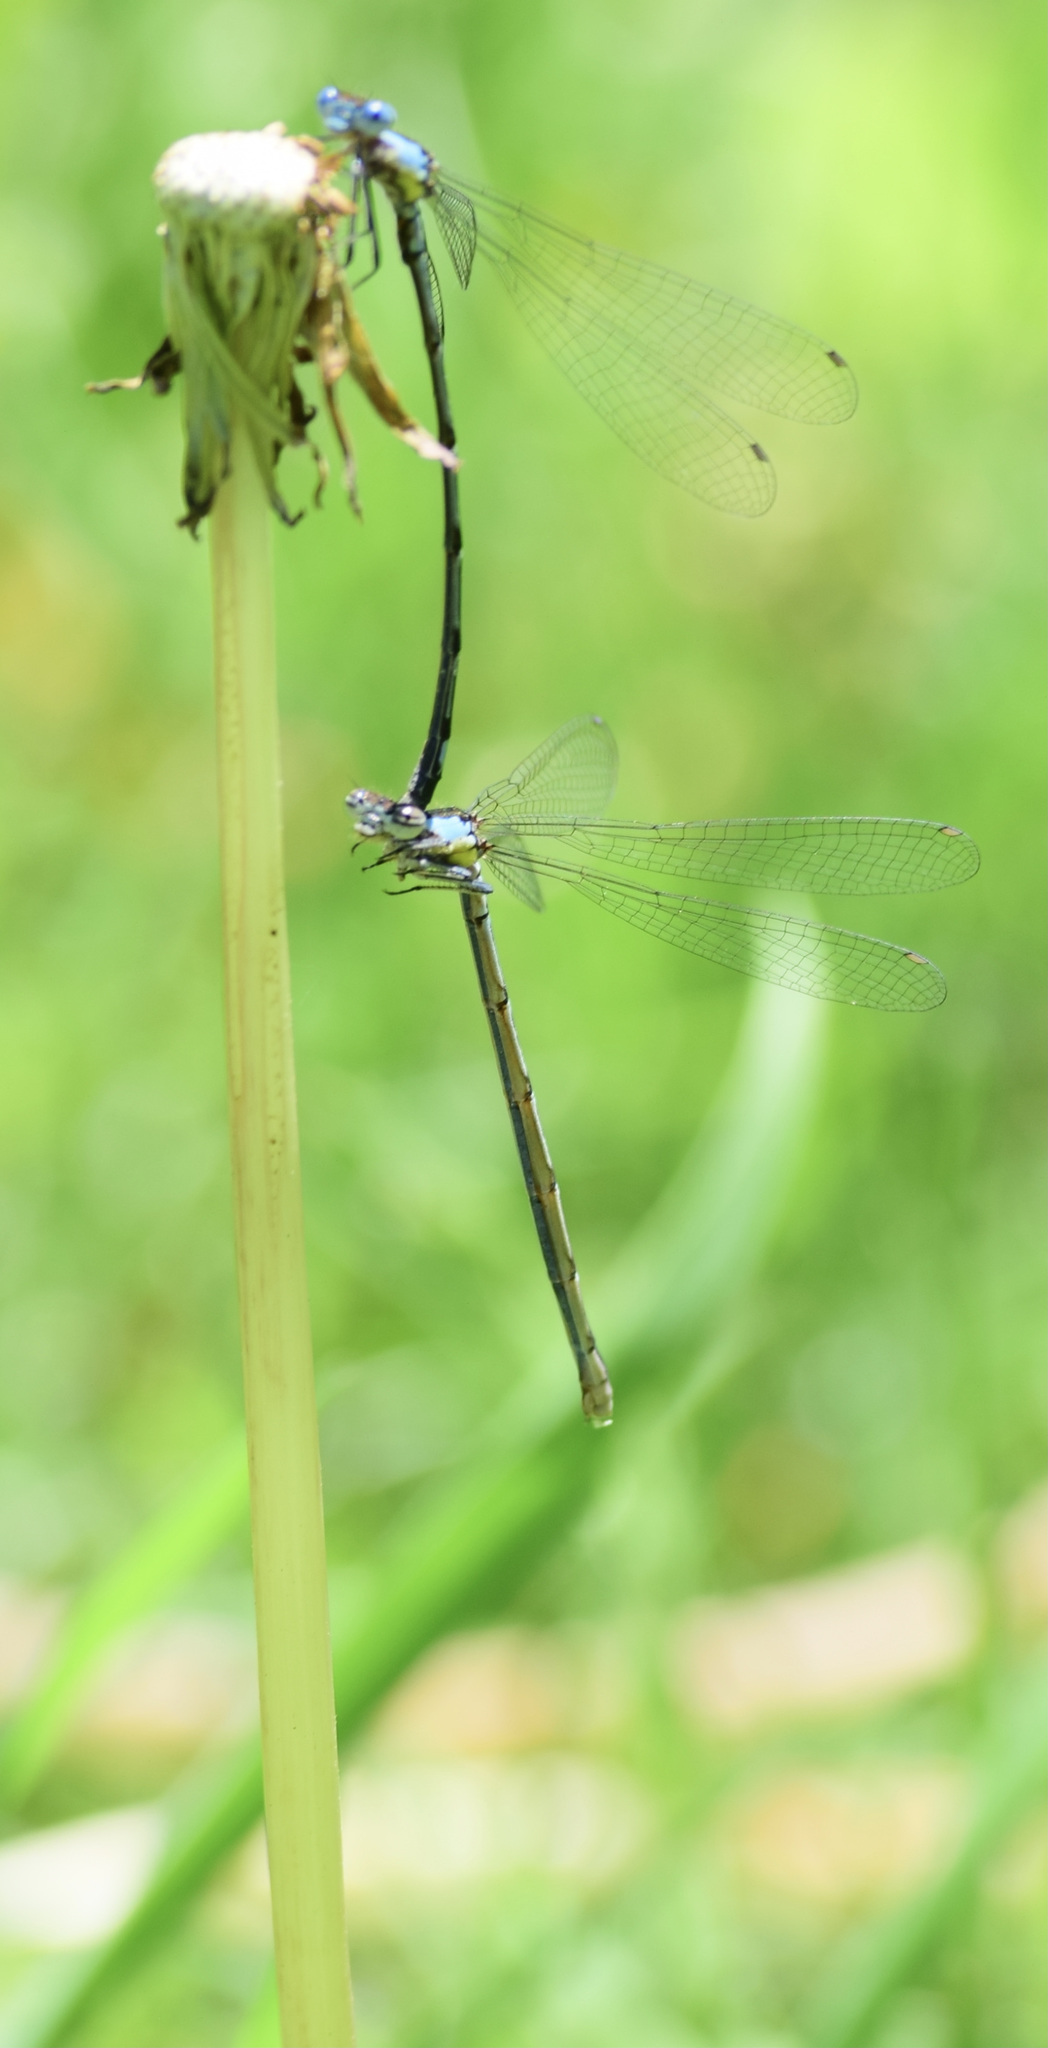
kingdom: Animalia
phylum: Arthropoda
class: Insecta
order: Odonata
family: Coenagrionidae
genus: Chromagrion
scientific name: Chromagrion conditum
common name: Aurora damsel
